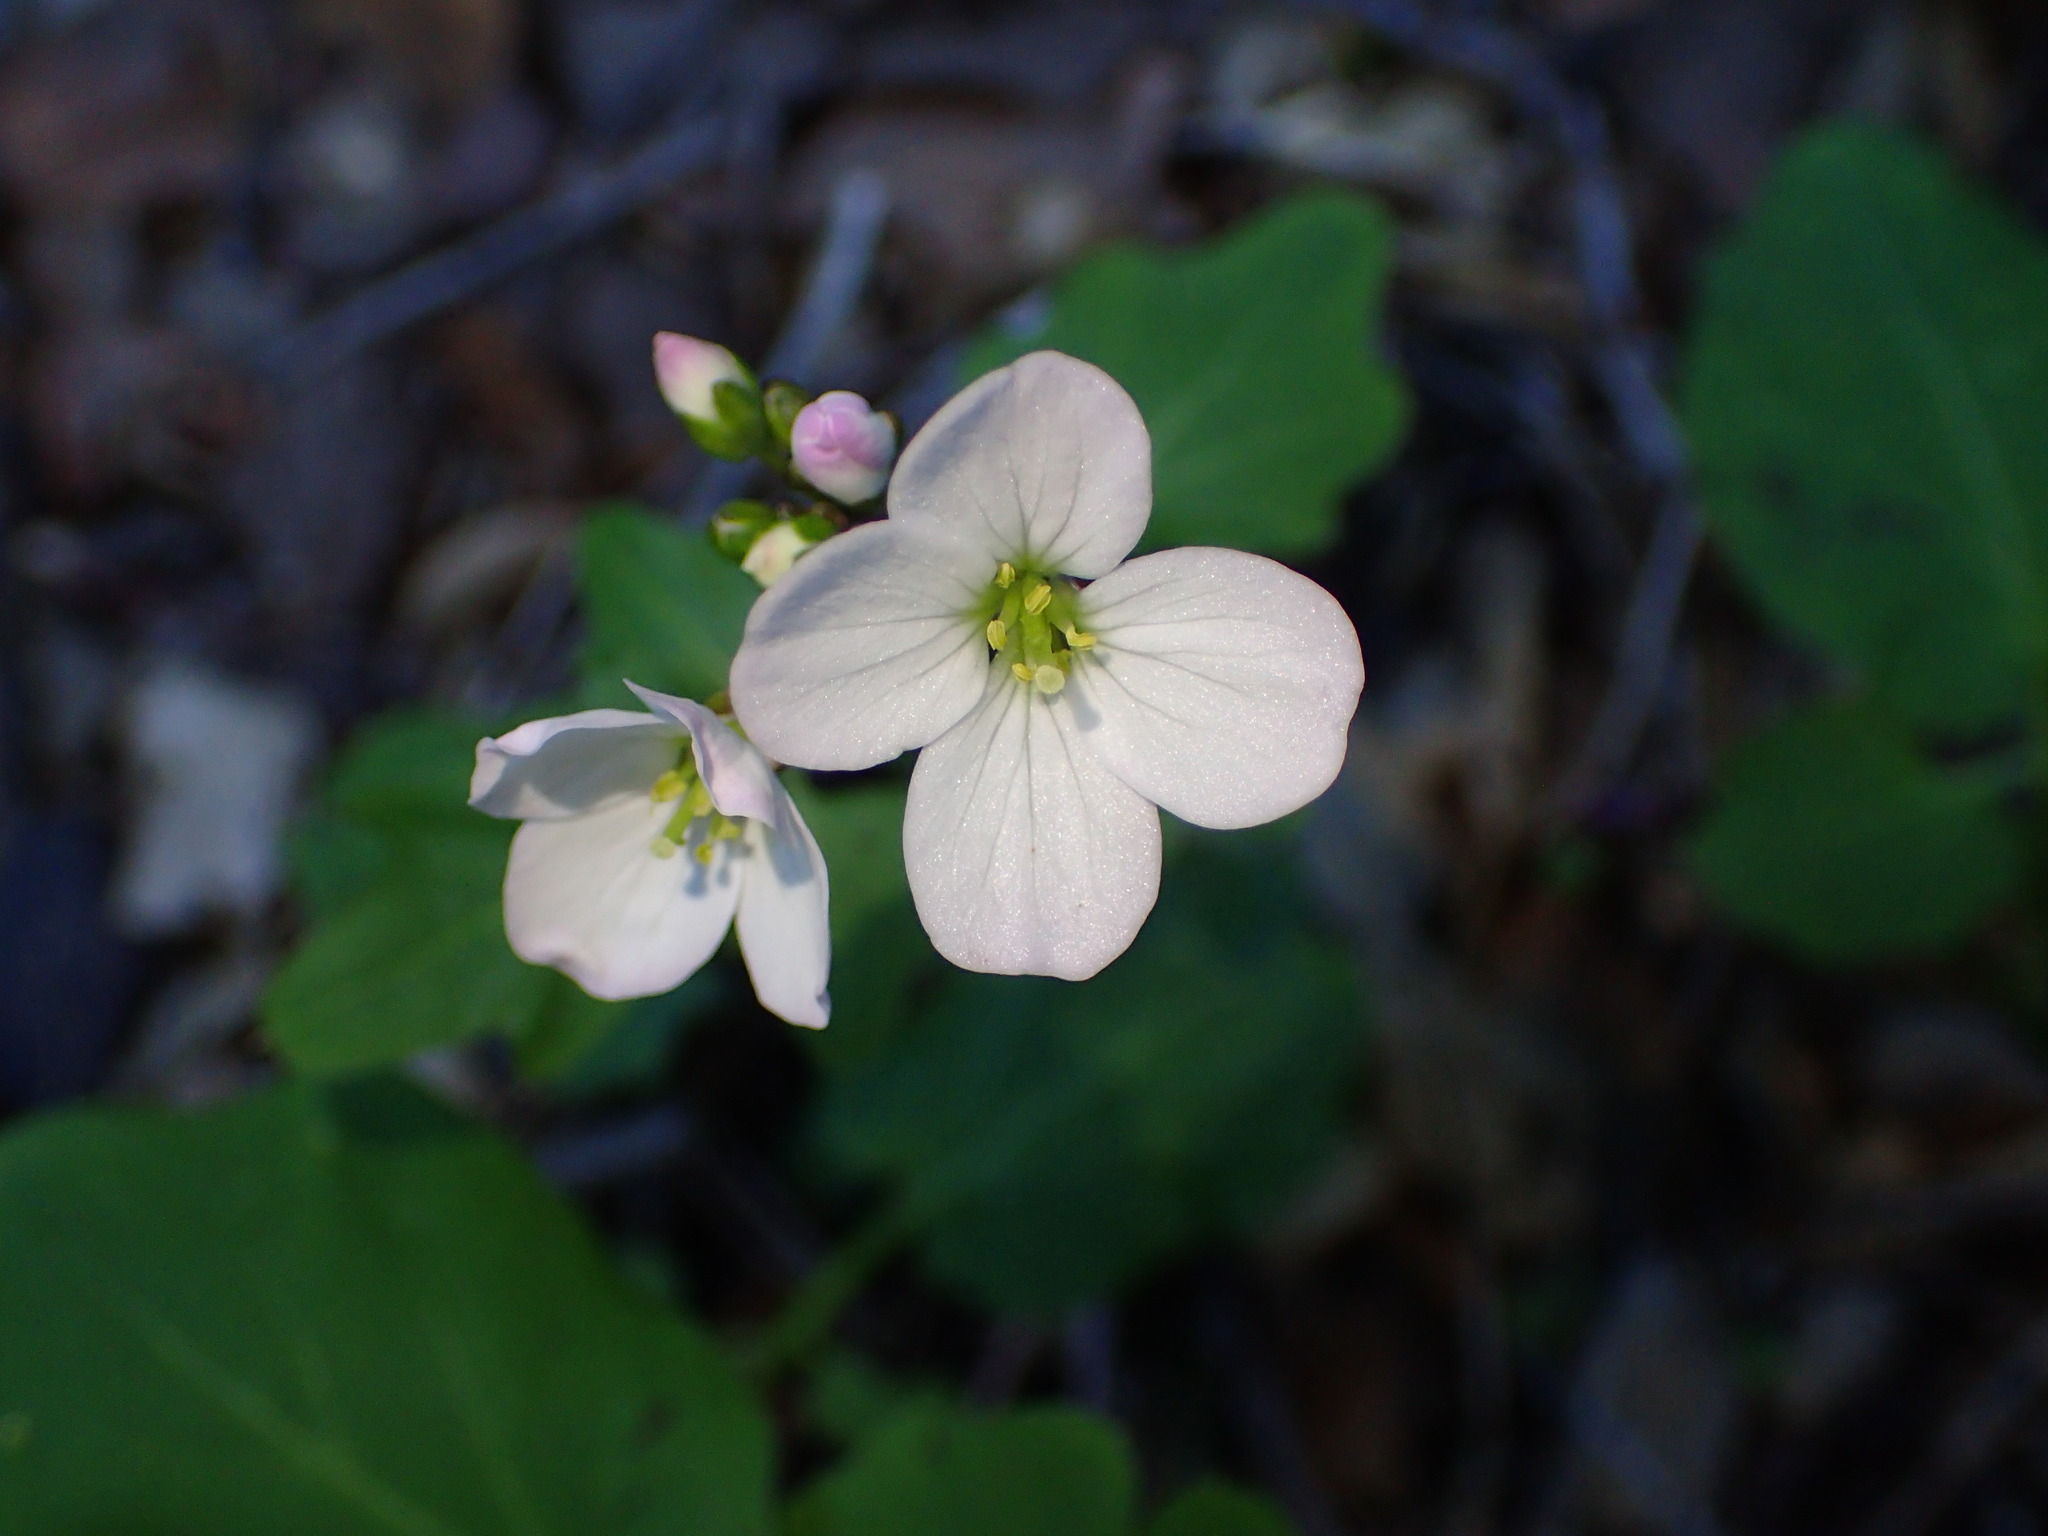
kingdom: Plantae
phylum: Tracheophyta
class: Magnoliopsida
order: Brassicales
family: Brassicaceae
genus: Cardamine
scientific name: Cardamine californica
